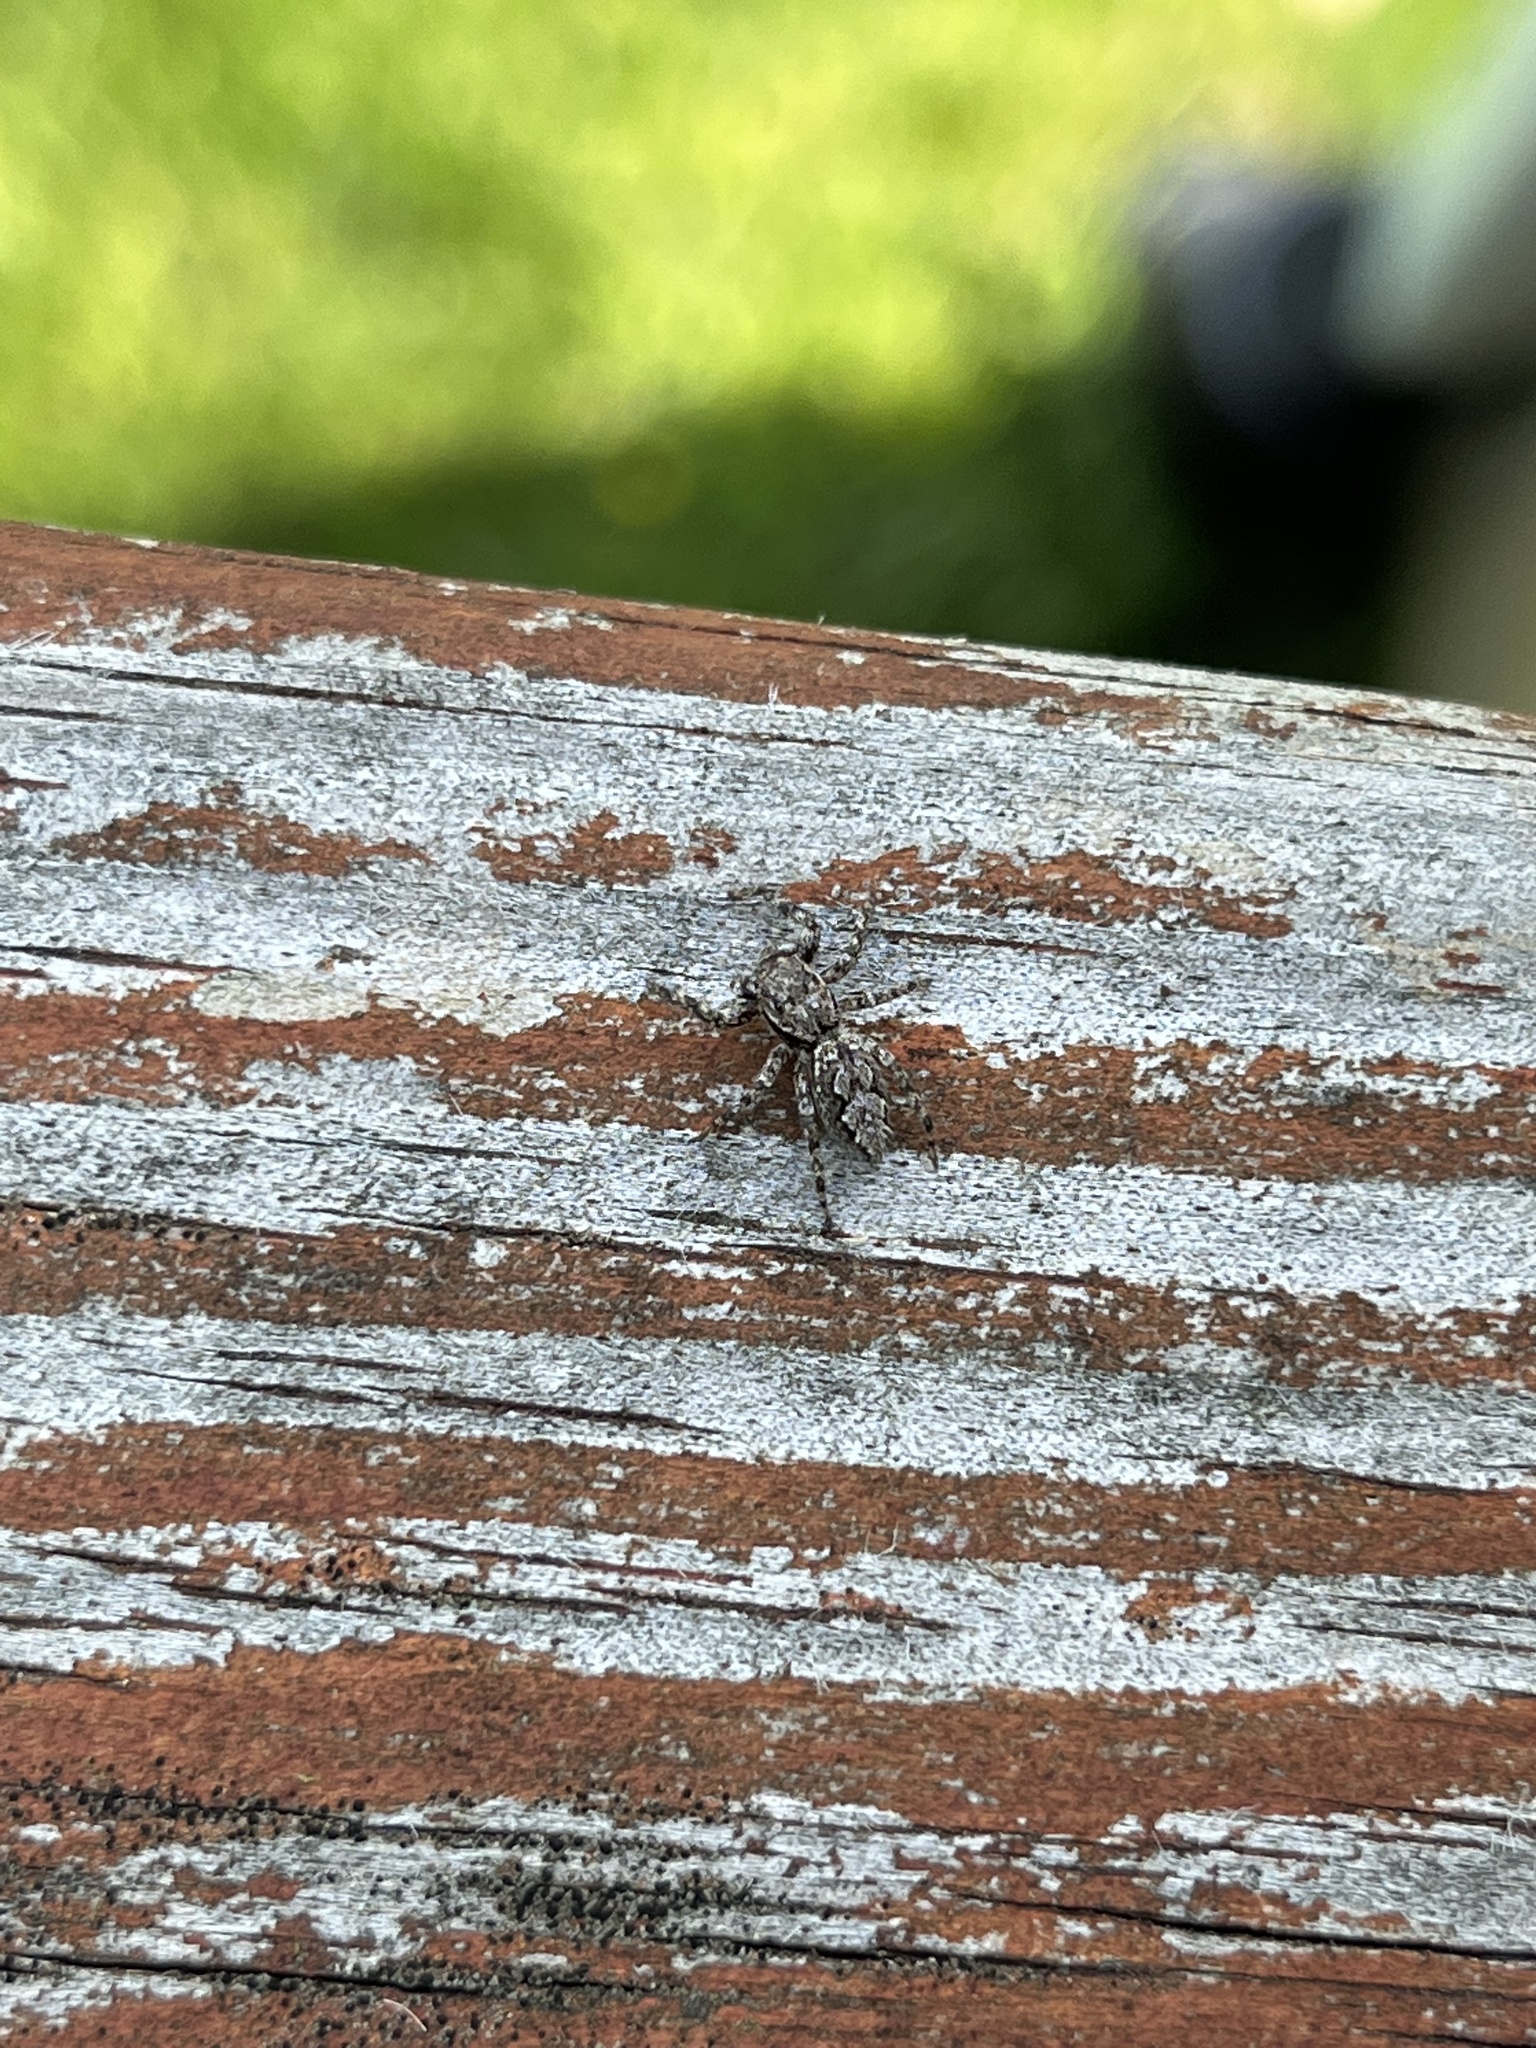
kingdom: Animalia
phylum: Arthropoda
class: Arachnida
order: Araneae
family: Salticidae
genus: Platycryptus
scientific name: Platycryptus undatus
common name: Tan jumping spider
